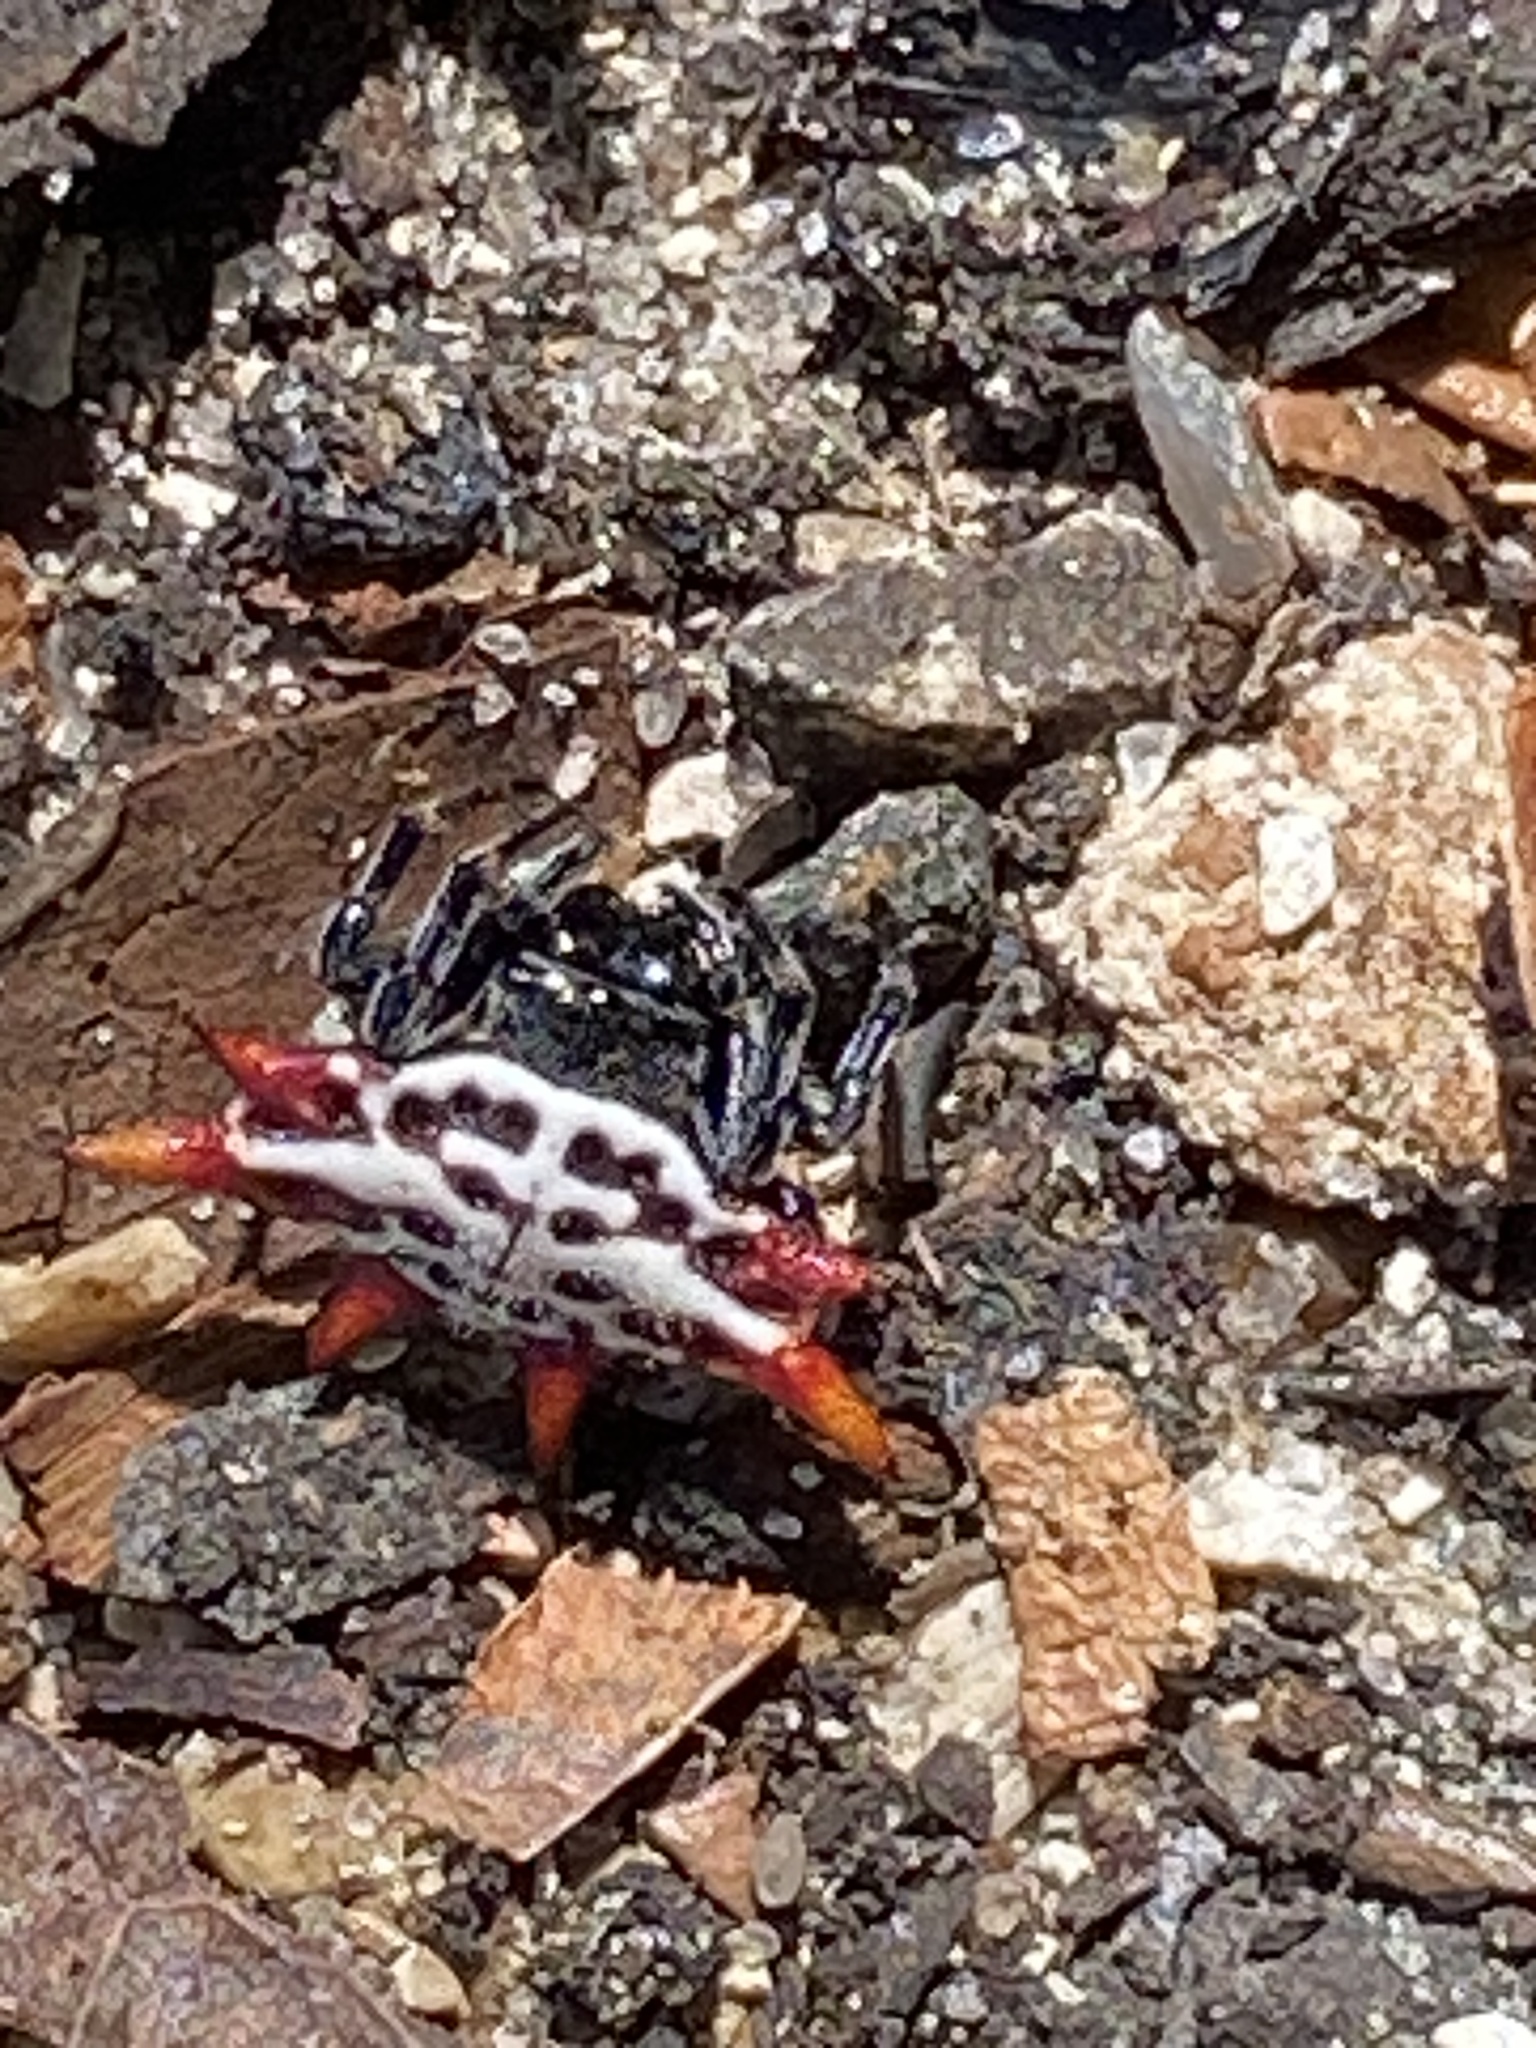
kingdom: Animalia
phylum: Arthropoda
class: Arachnida
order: Araneae
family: Araneidae
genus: Gasteracantha
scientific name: Gasteracantha cancriformis
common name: Orb weavers
